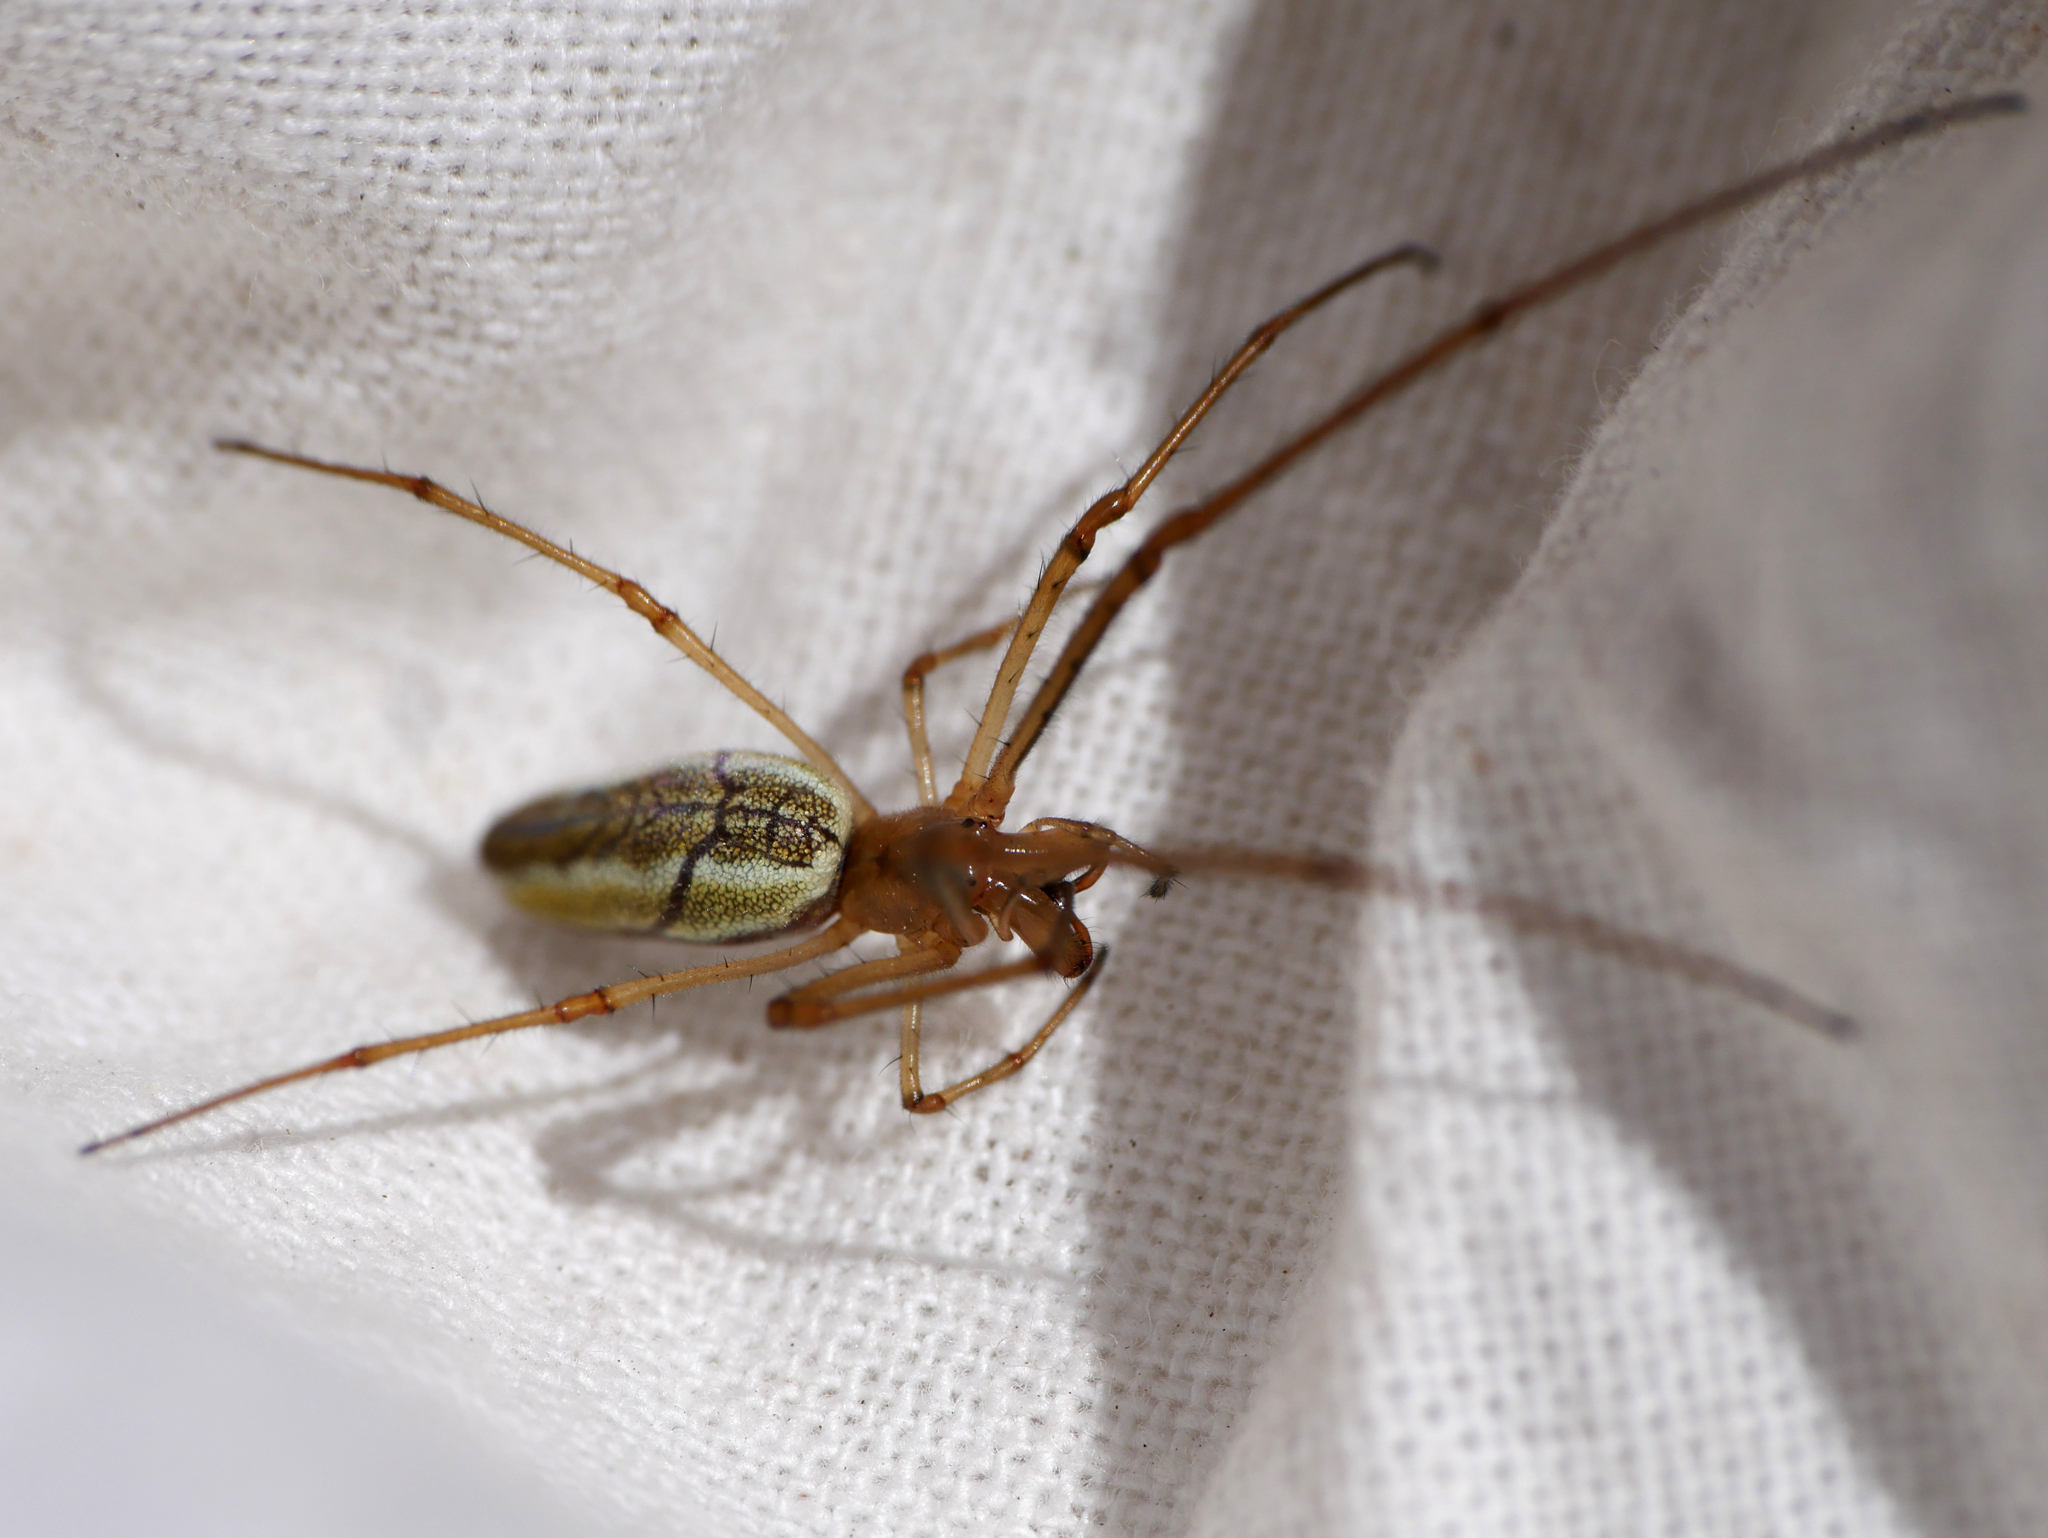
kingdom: Animalia
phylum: Arthropoda
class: Arachnida
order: Araneae
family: Tetragnathidae
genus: Tetragnatha
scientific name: Tetragnatha extensa
